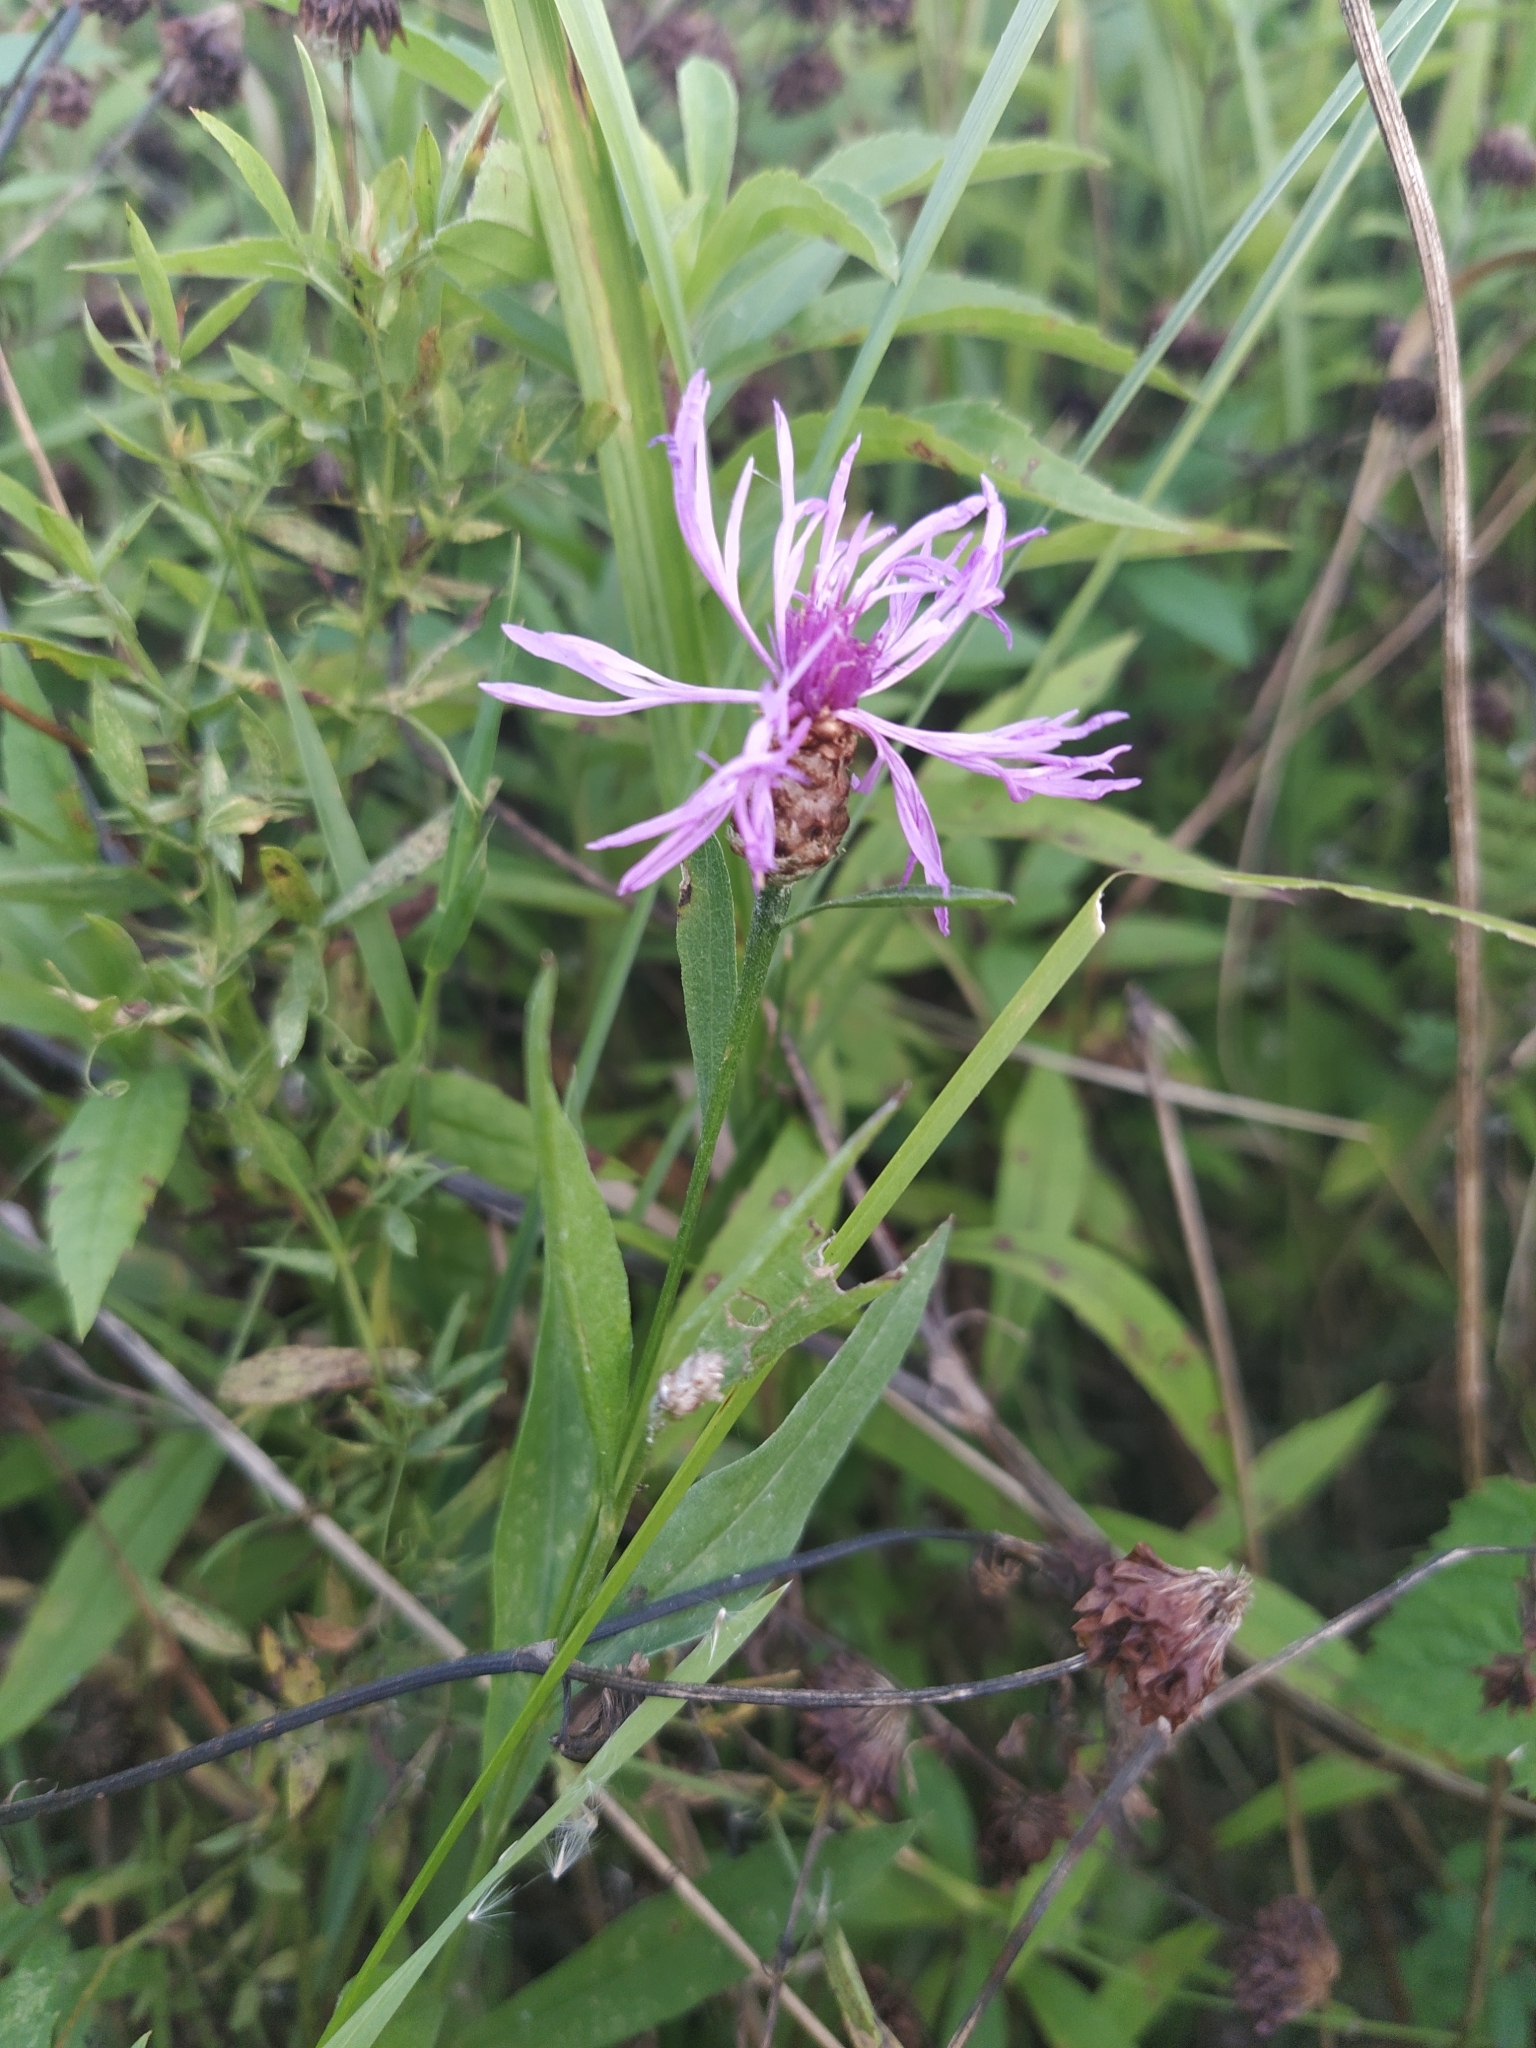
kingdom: Plantae
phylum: Tracheophyta
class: Magnoliopsida
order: Asterales
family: Asteraceae
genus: Centaurea
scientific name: Centaurea jacea
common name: Brown knapweed
